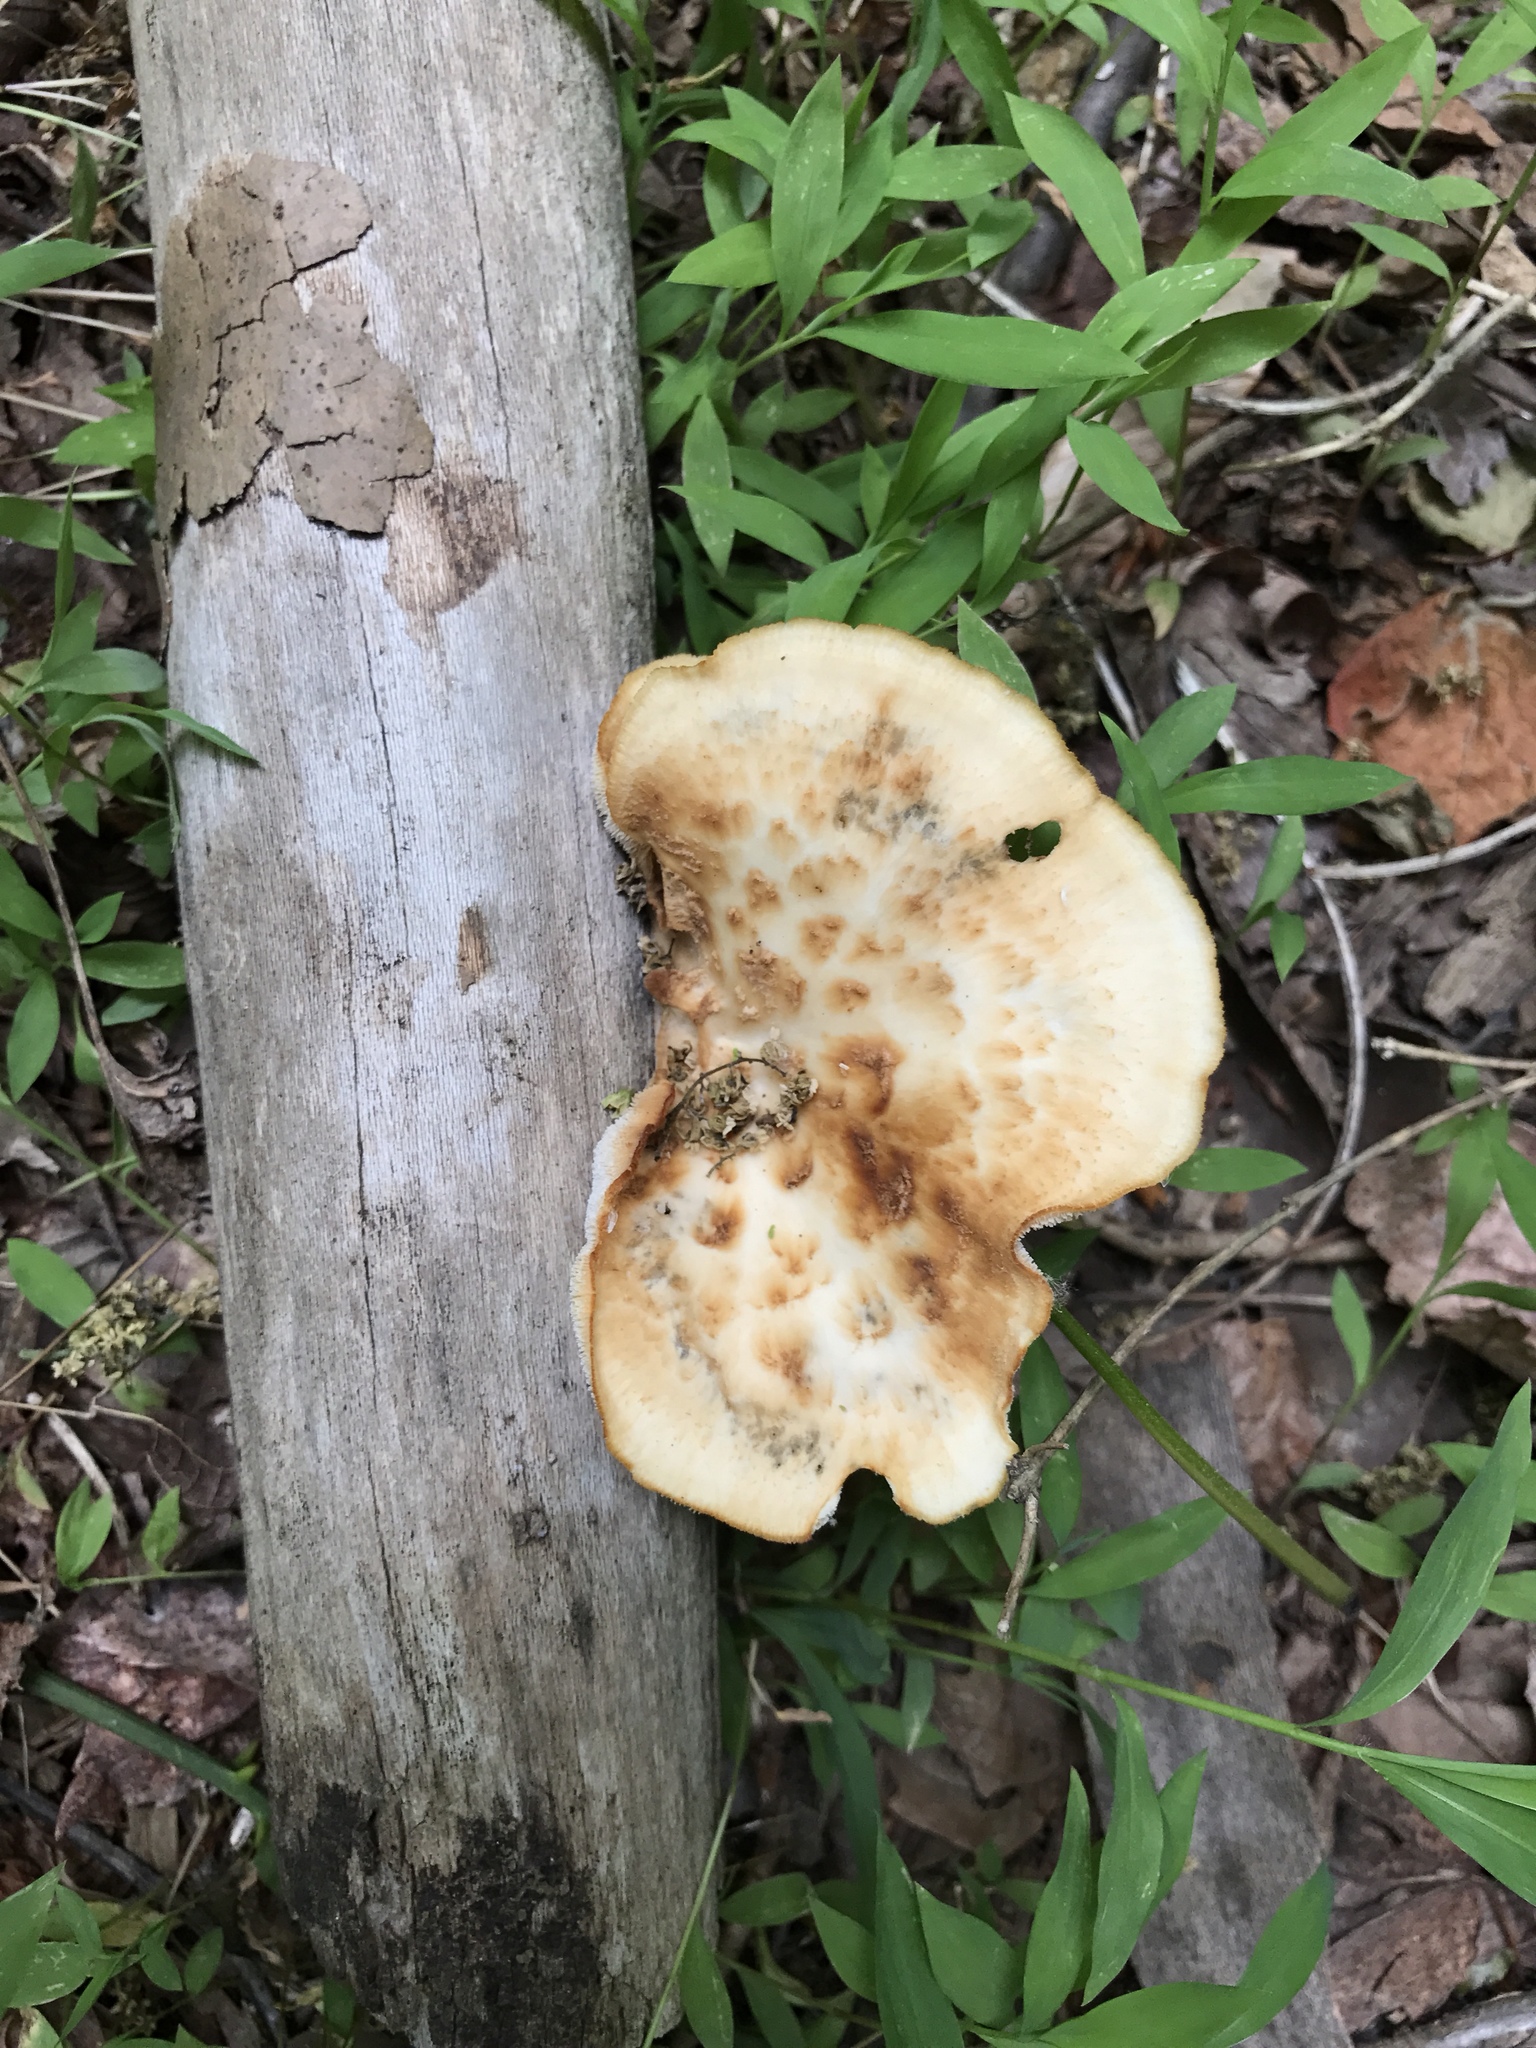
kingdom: Fungi
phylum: Basidiomycota
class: Agaricomycetes
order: Polyporales
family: Polyporaceae
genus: Cerioporus
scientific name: Cerioporus squamosus
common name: Dryad's saddle
